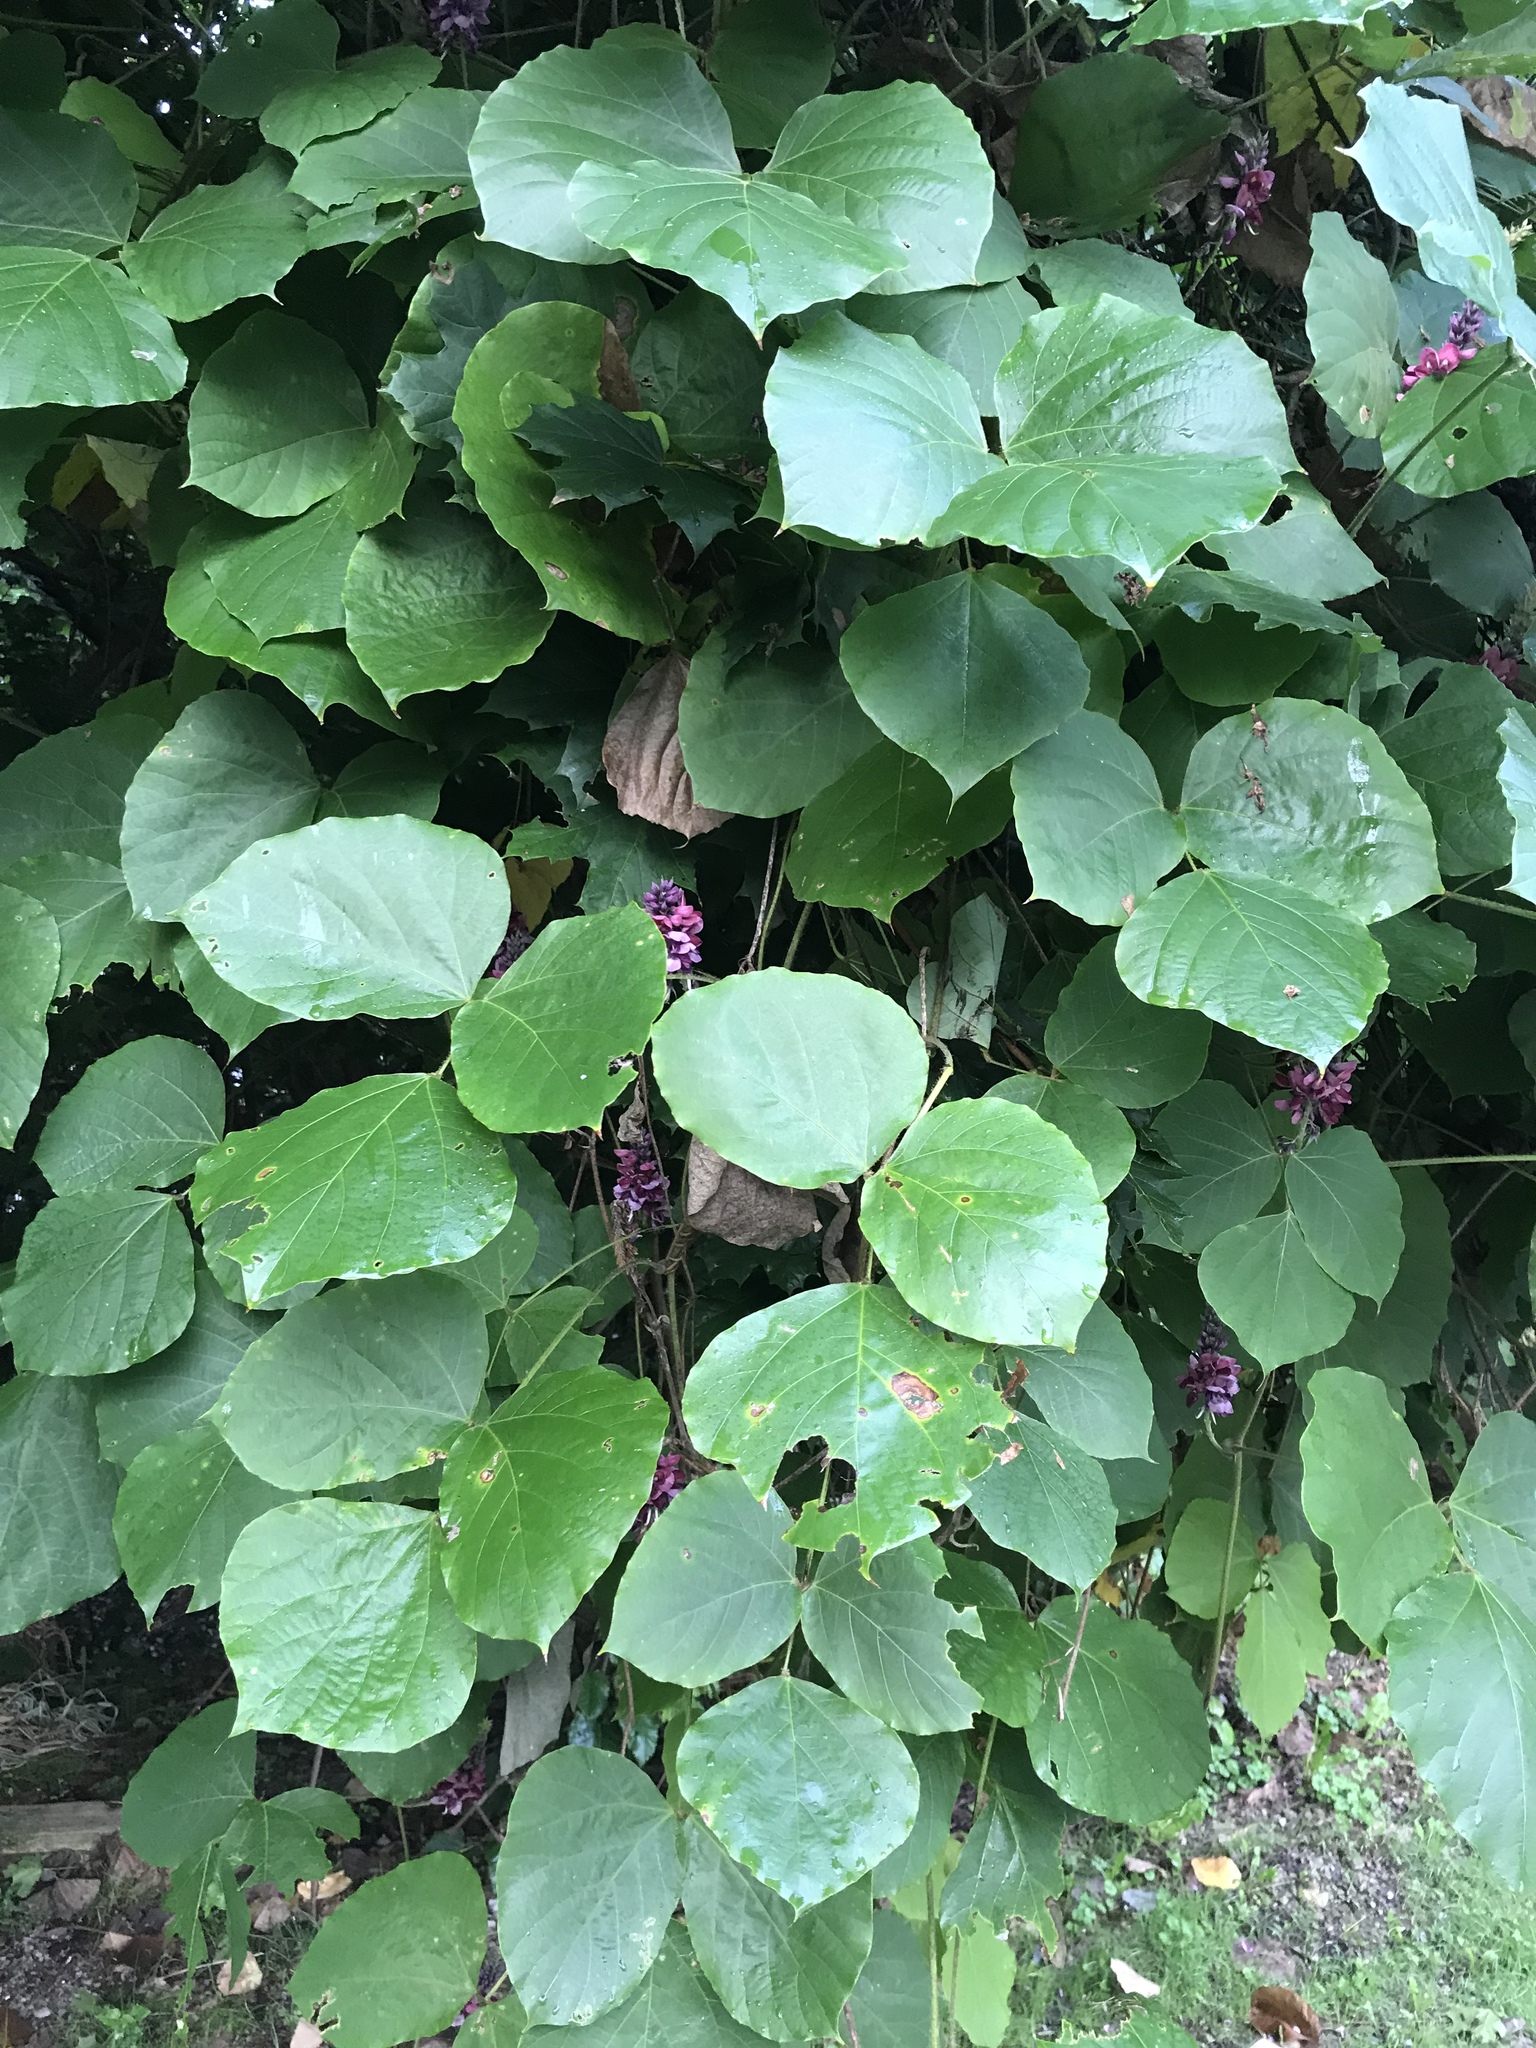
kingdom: Plantae
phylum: Tracheophyta
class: Magnoliopsida
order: Fabales
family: Fabaceae
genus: Pueraria
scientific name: Pueraria montana
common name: Kudzu
